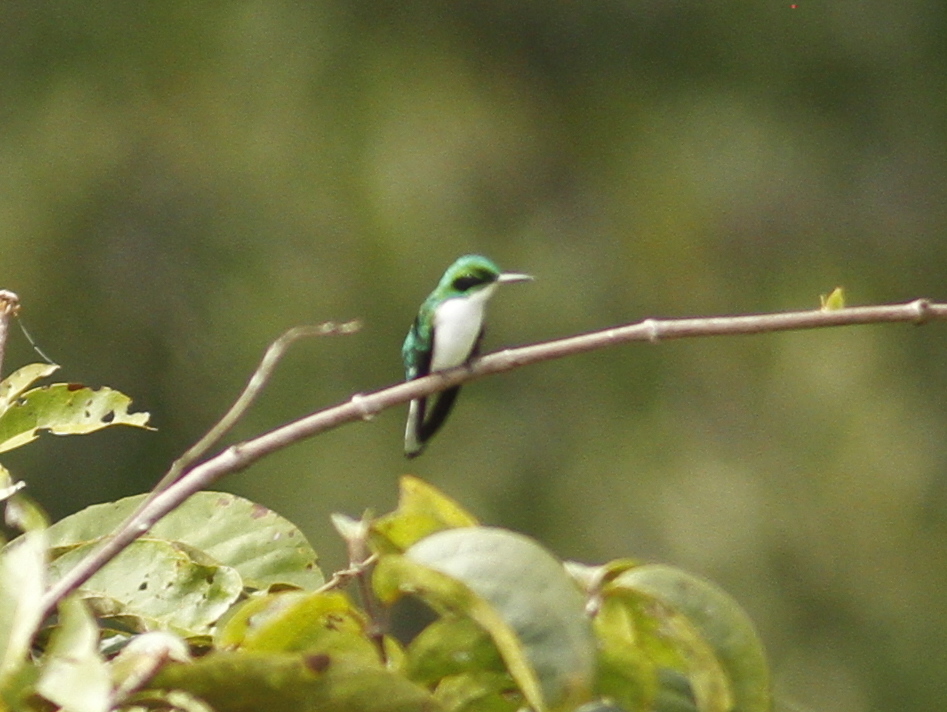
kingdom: Animalia
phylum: Chordata
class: Aves
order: Apodiformes
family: Trochilidae
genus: Heliothryx
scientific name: Heliothryx auritus
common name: Black-eared fairy
